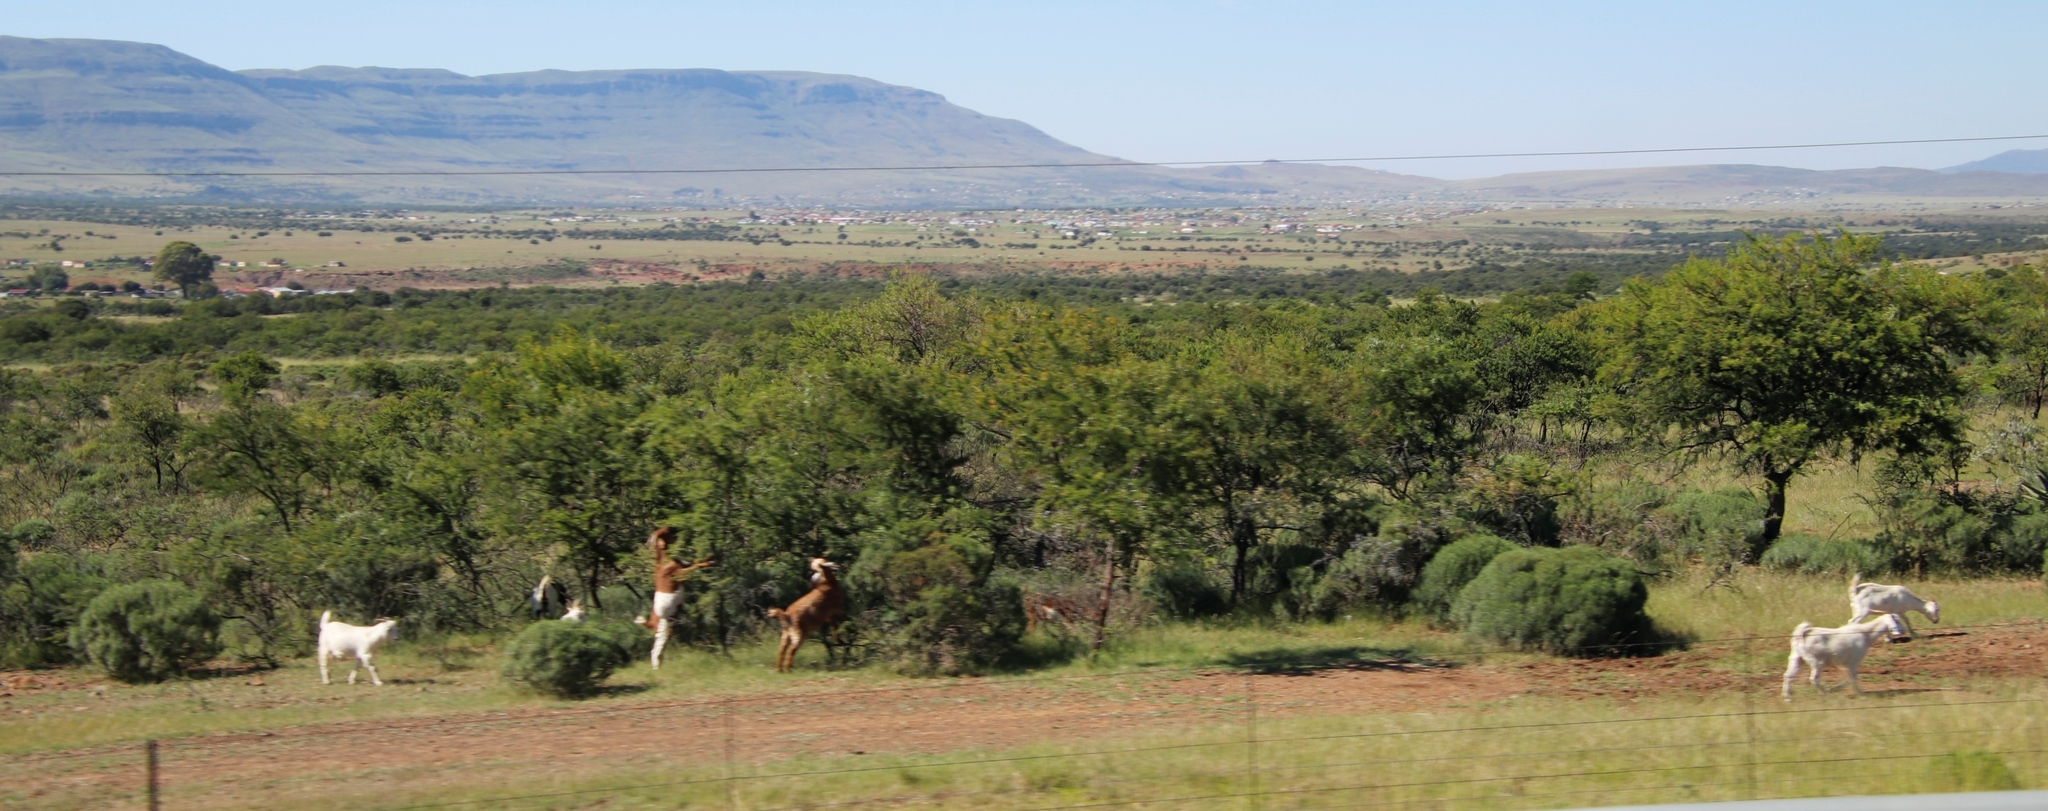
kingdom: Plantae
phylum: Tracheophyta
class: Magnoliopsida
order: Fabales
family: Fabaceae
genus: Vachellia
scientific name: Vachellia karroo
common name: Sweet thorn
